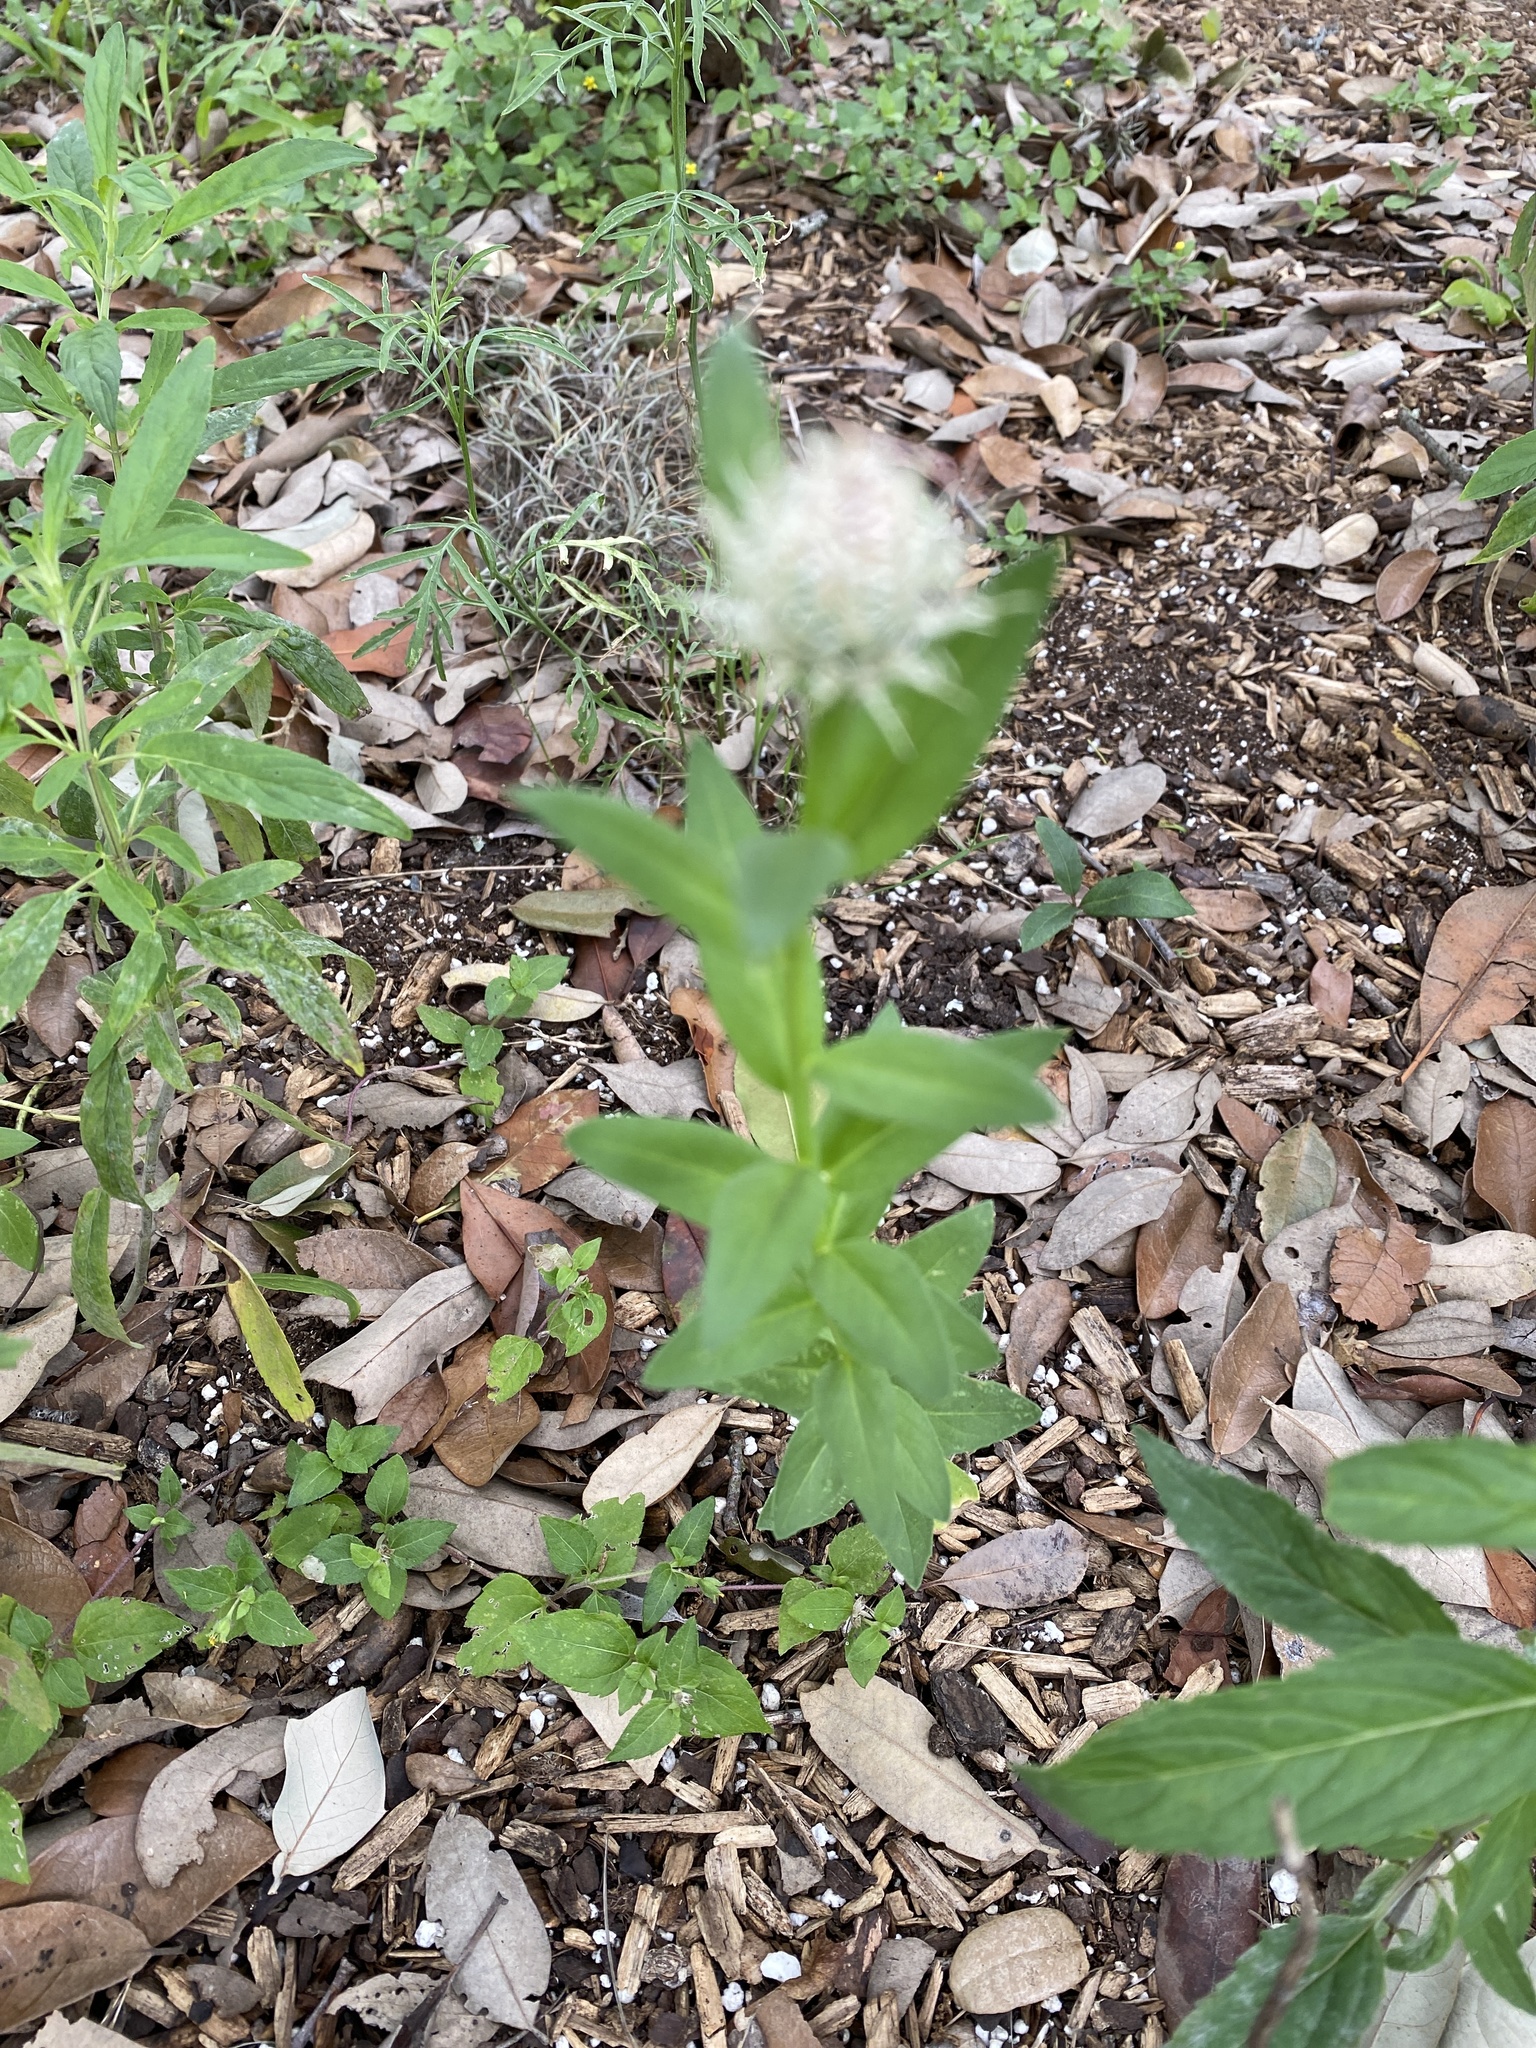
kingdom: Plantae
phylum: Tracheophyta
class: Magnoliopsida
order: Asterales
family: Asteraceae
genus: Plectocephalus
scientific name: Plectocephalus americanus
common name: American basket-flower
